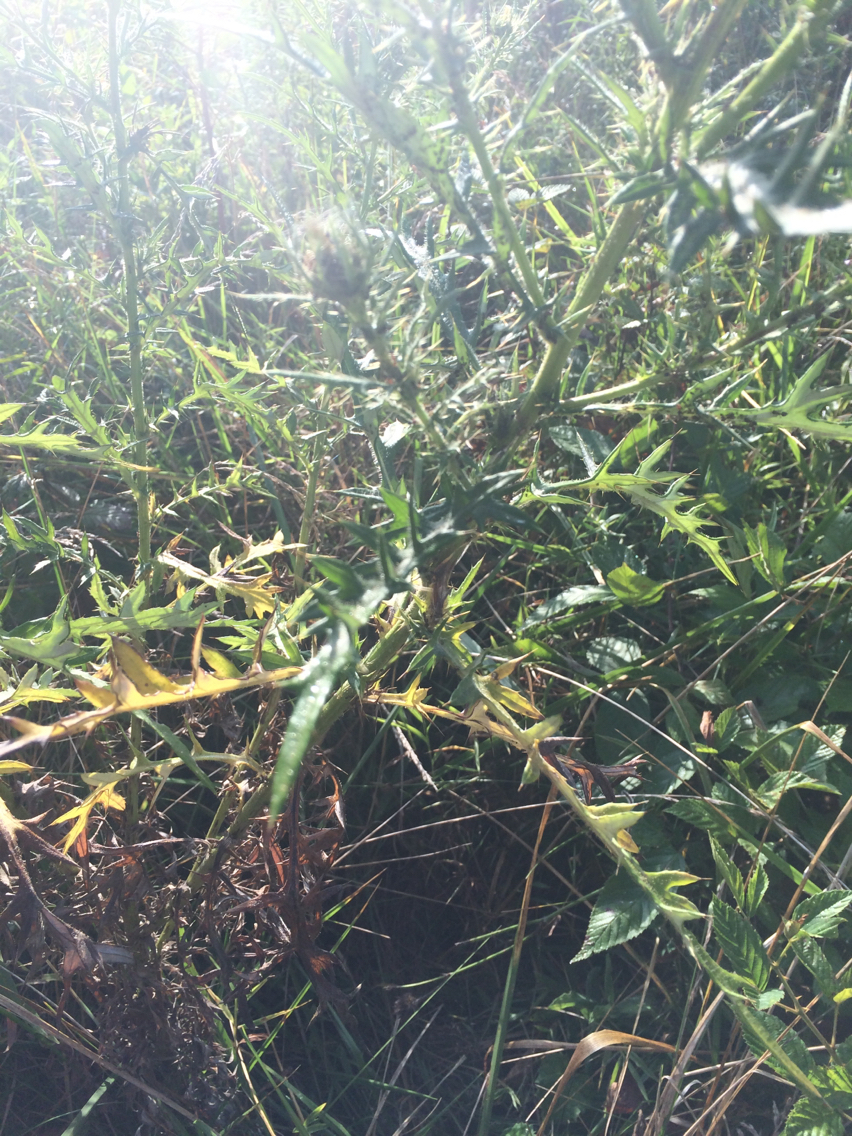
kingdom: Plantae
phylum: Tracheophyta
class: Magnoliopsida
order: Asterales
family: Asteraceae
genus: Cirsium
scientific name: Cirsium discolor
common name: Field thistle
